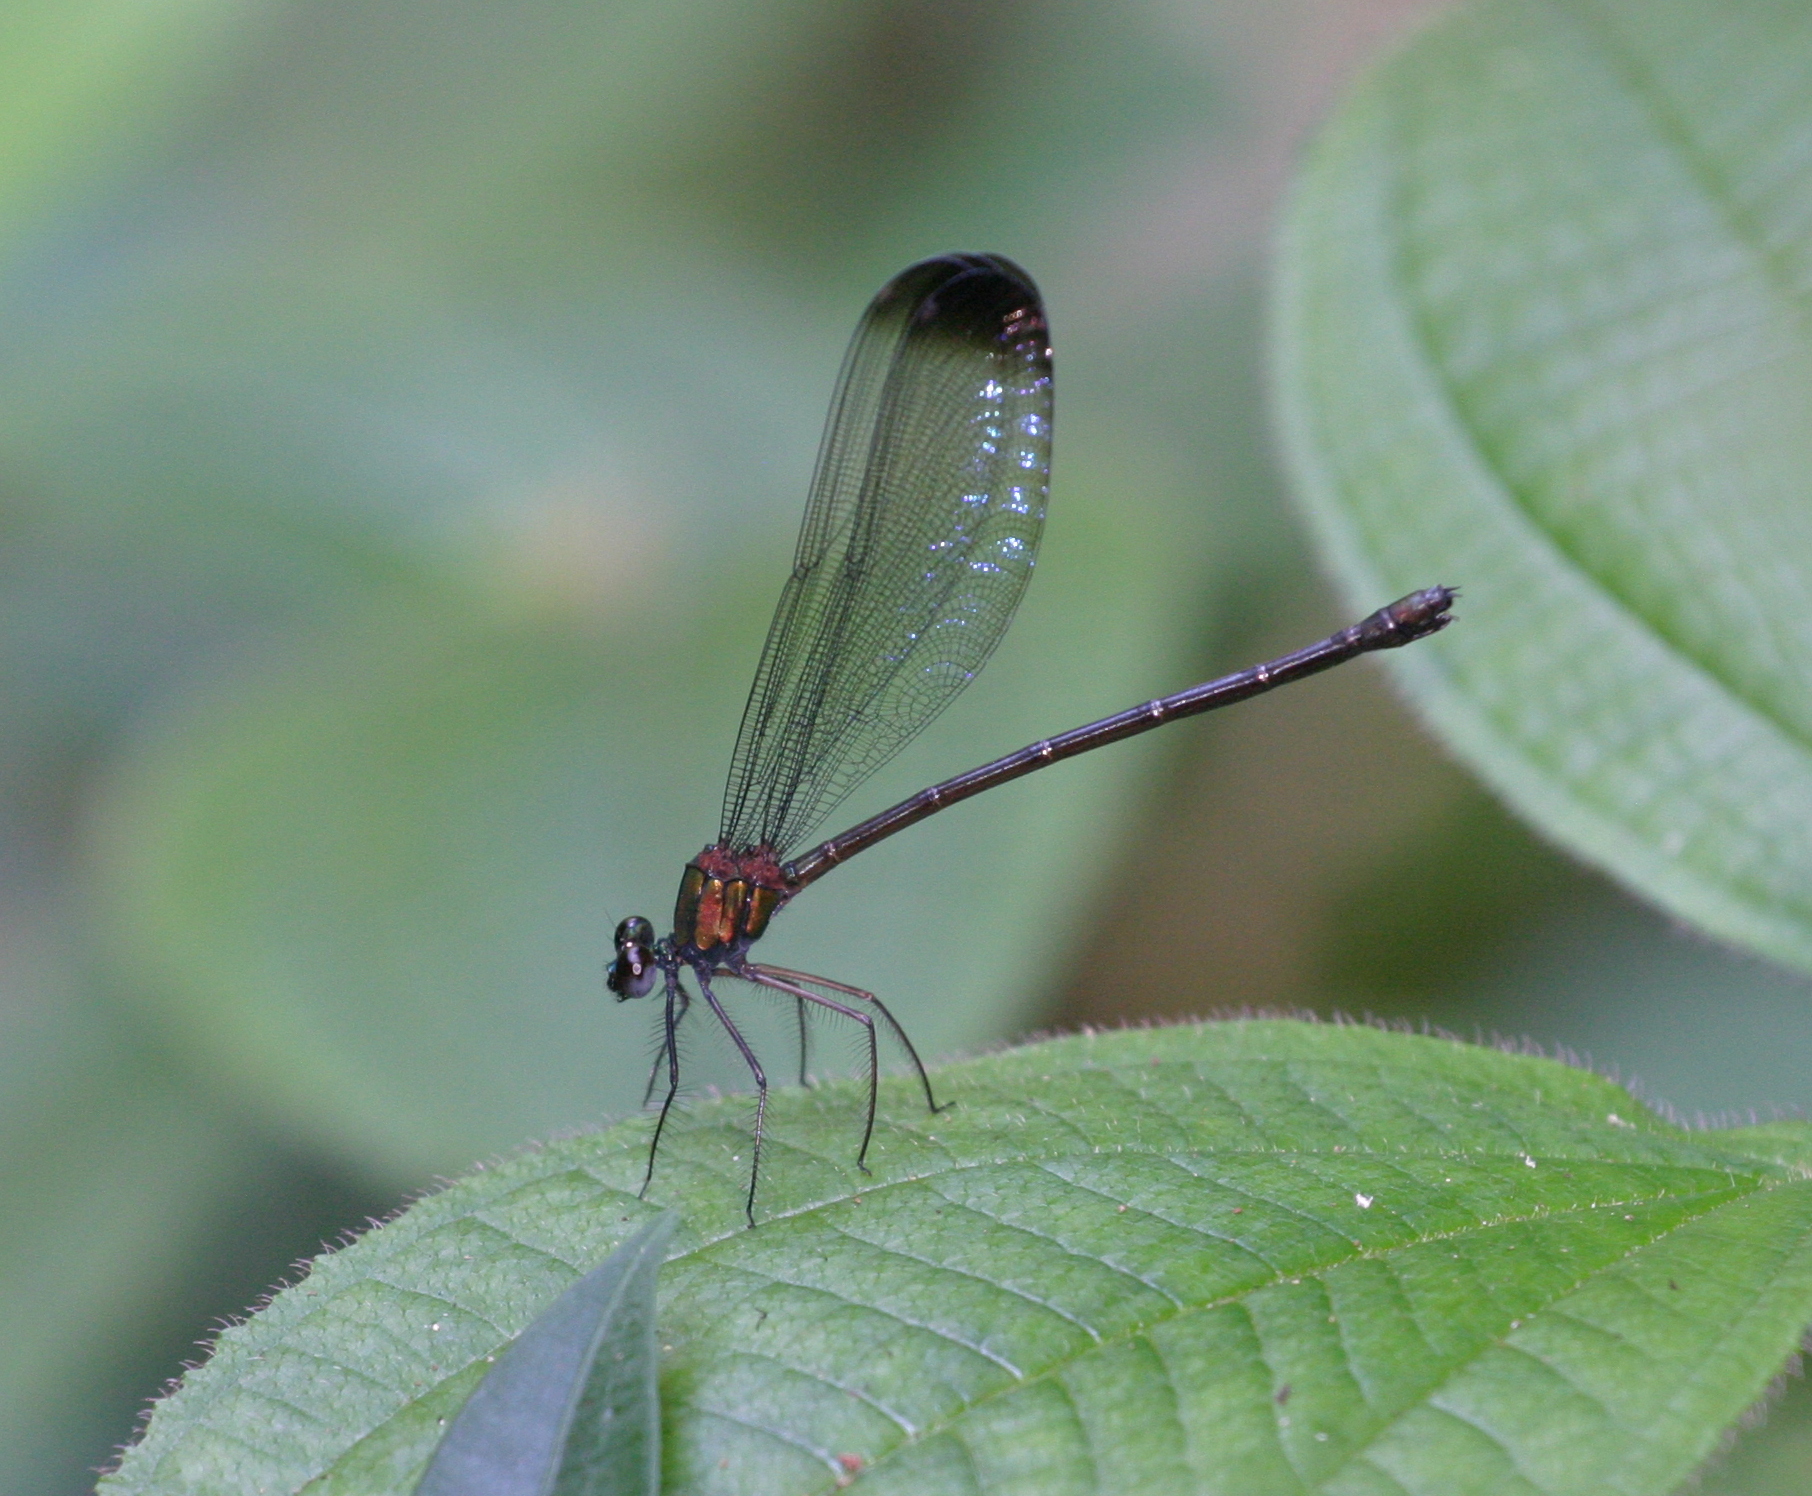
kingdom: Animalia
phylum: Arthropoda
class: Insecta
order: Odonata
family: Calopterygidae
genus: Echo
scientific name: Echo modesta
